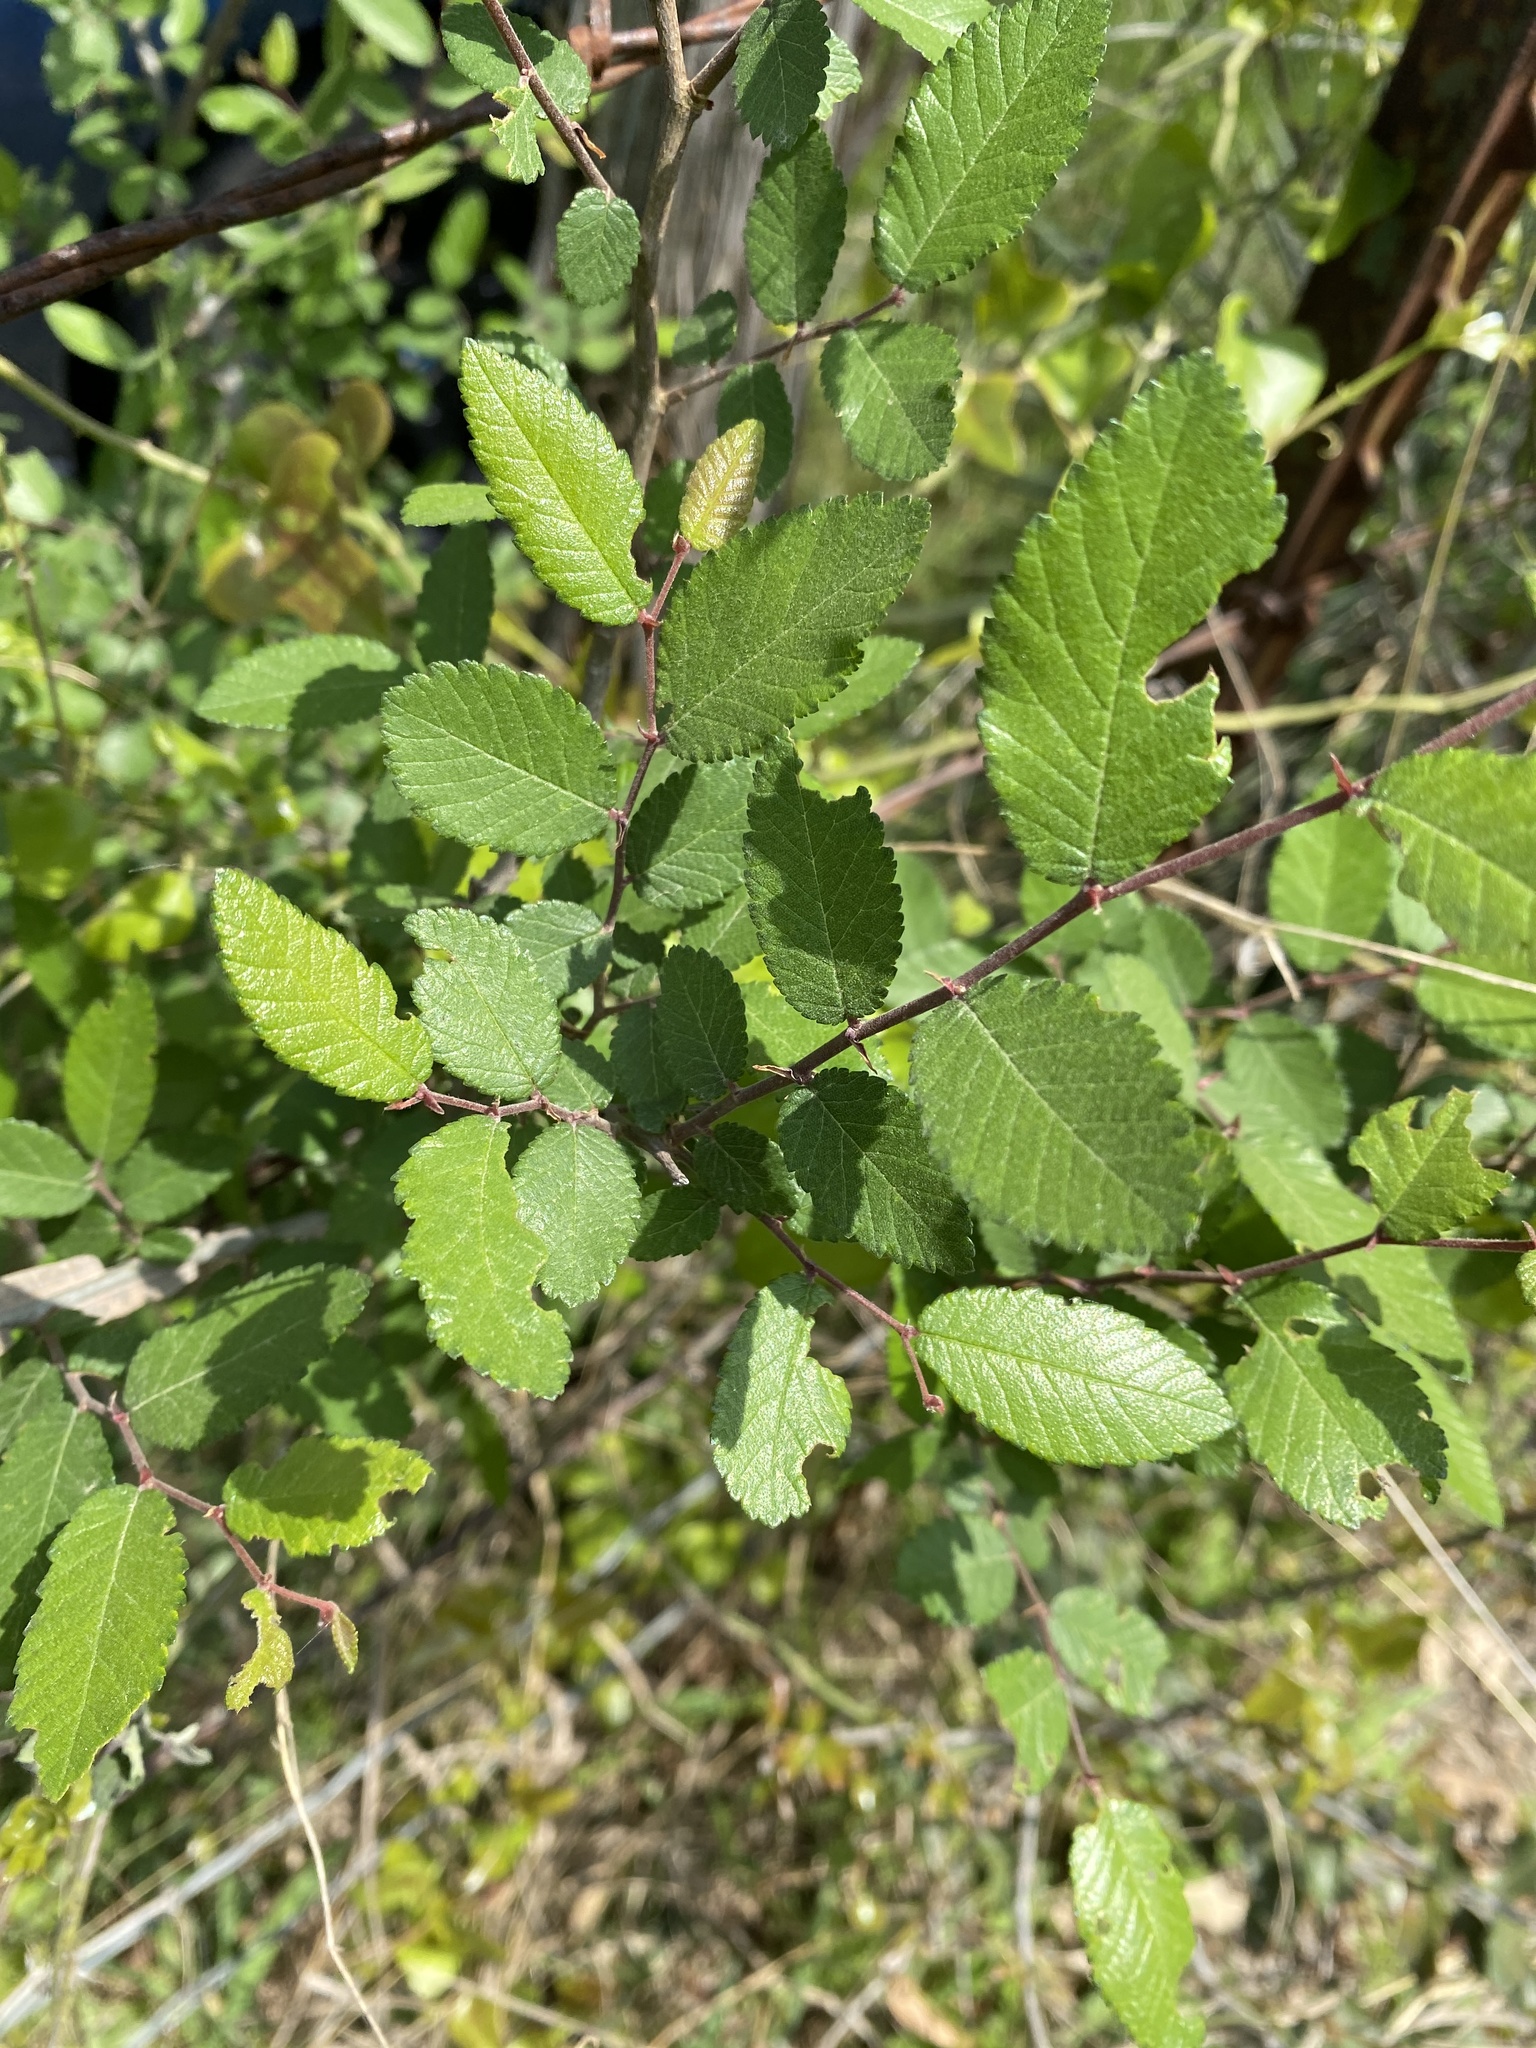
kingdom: Plantae
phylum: Tracheophyta
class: Magnoliopsida
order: Rosales
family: Ulmaceae
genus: Ulmus
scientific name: Ulmus crassifolia
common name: Basket elm
